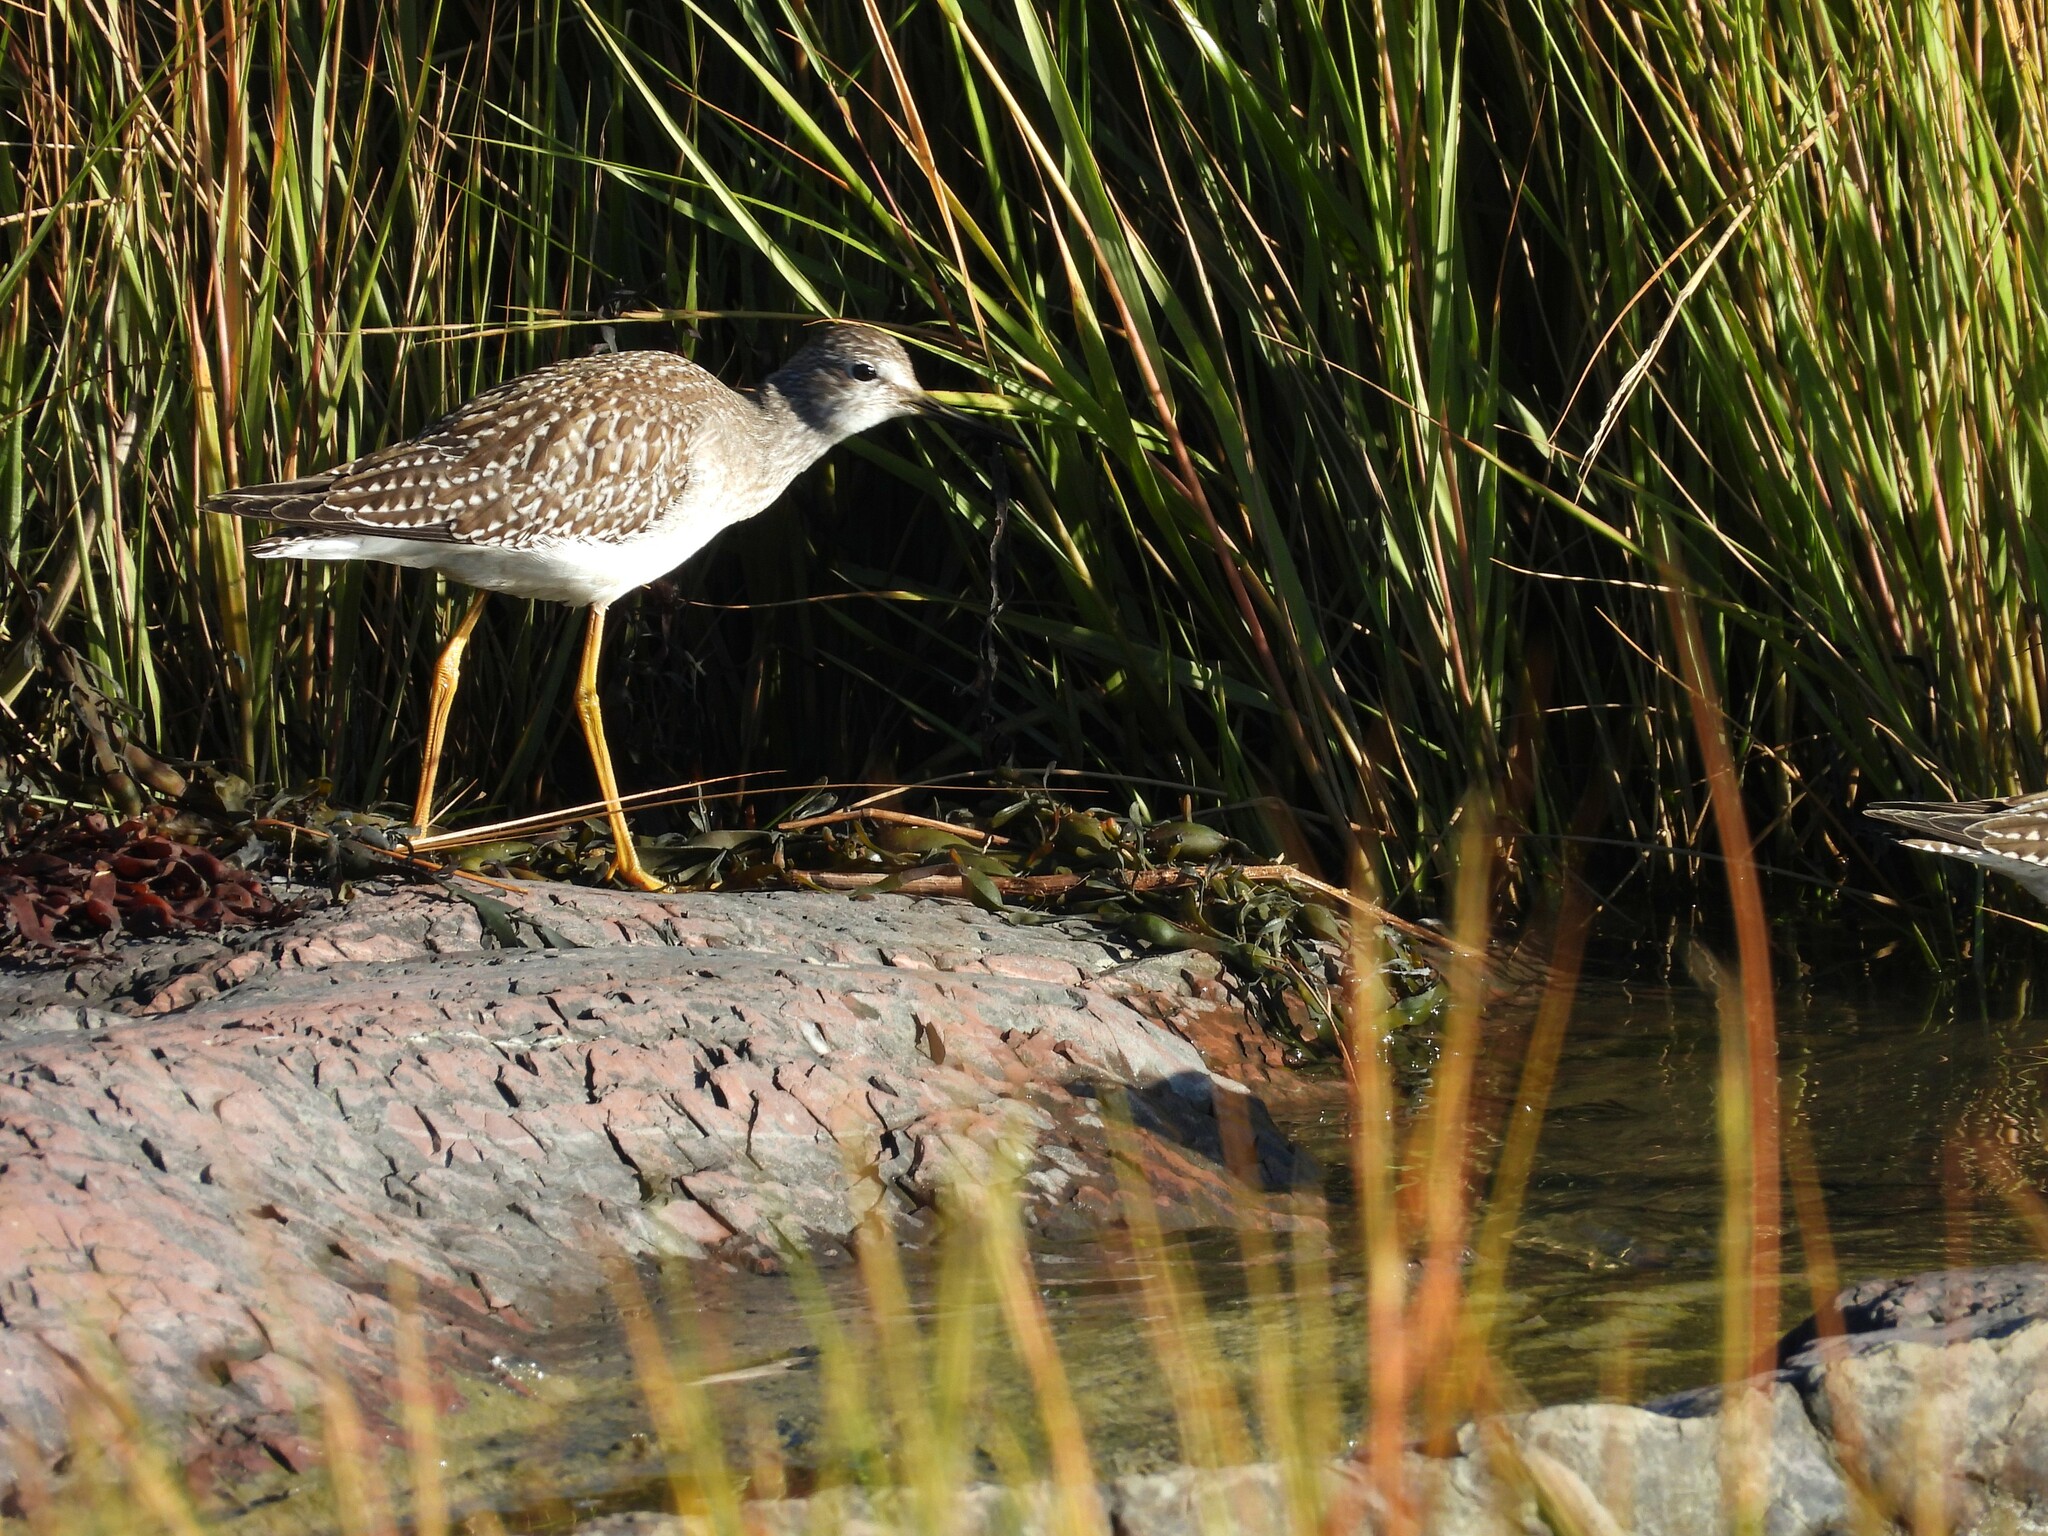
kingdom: Animalia
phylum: Chordata
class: Aves
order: Charadriiformes
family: Scolopacidae
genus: Tringa
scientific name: Tringa flavipes
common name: Lesser yellowlegs
